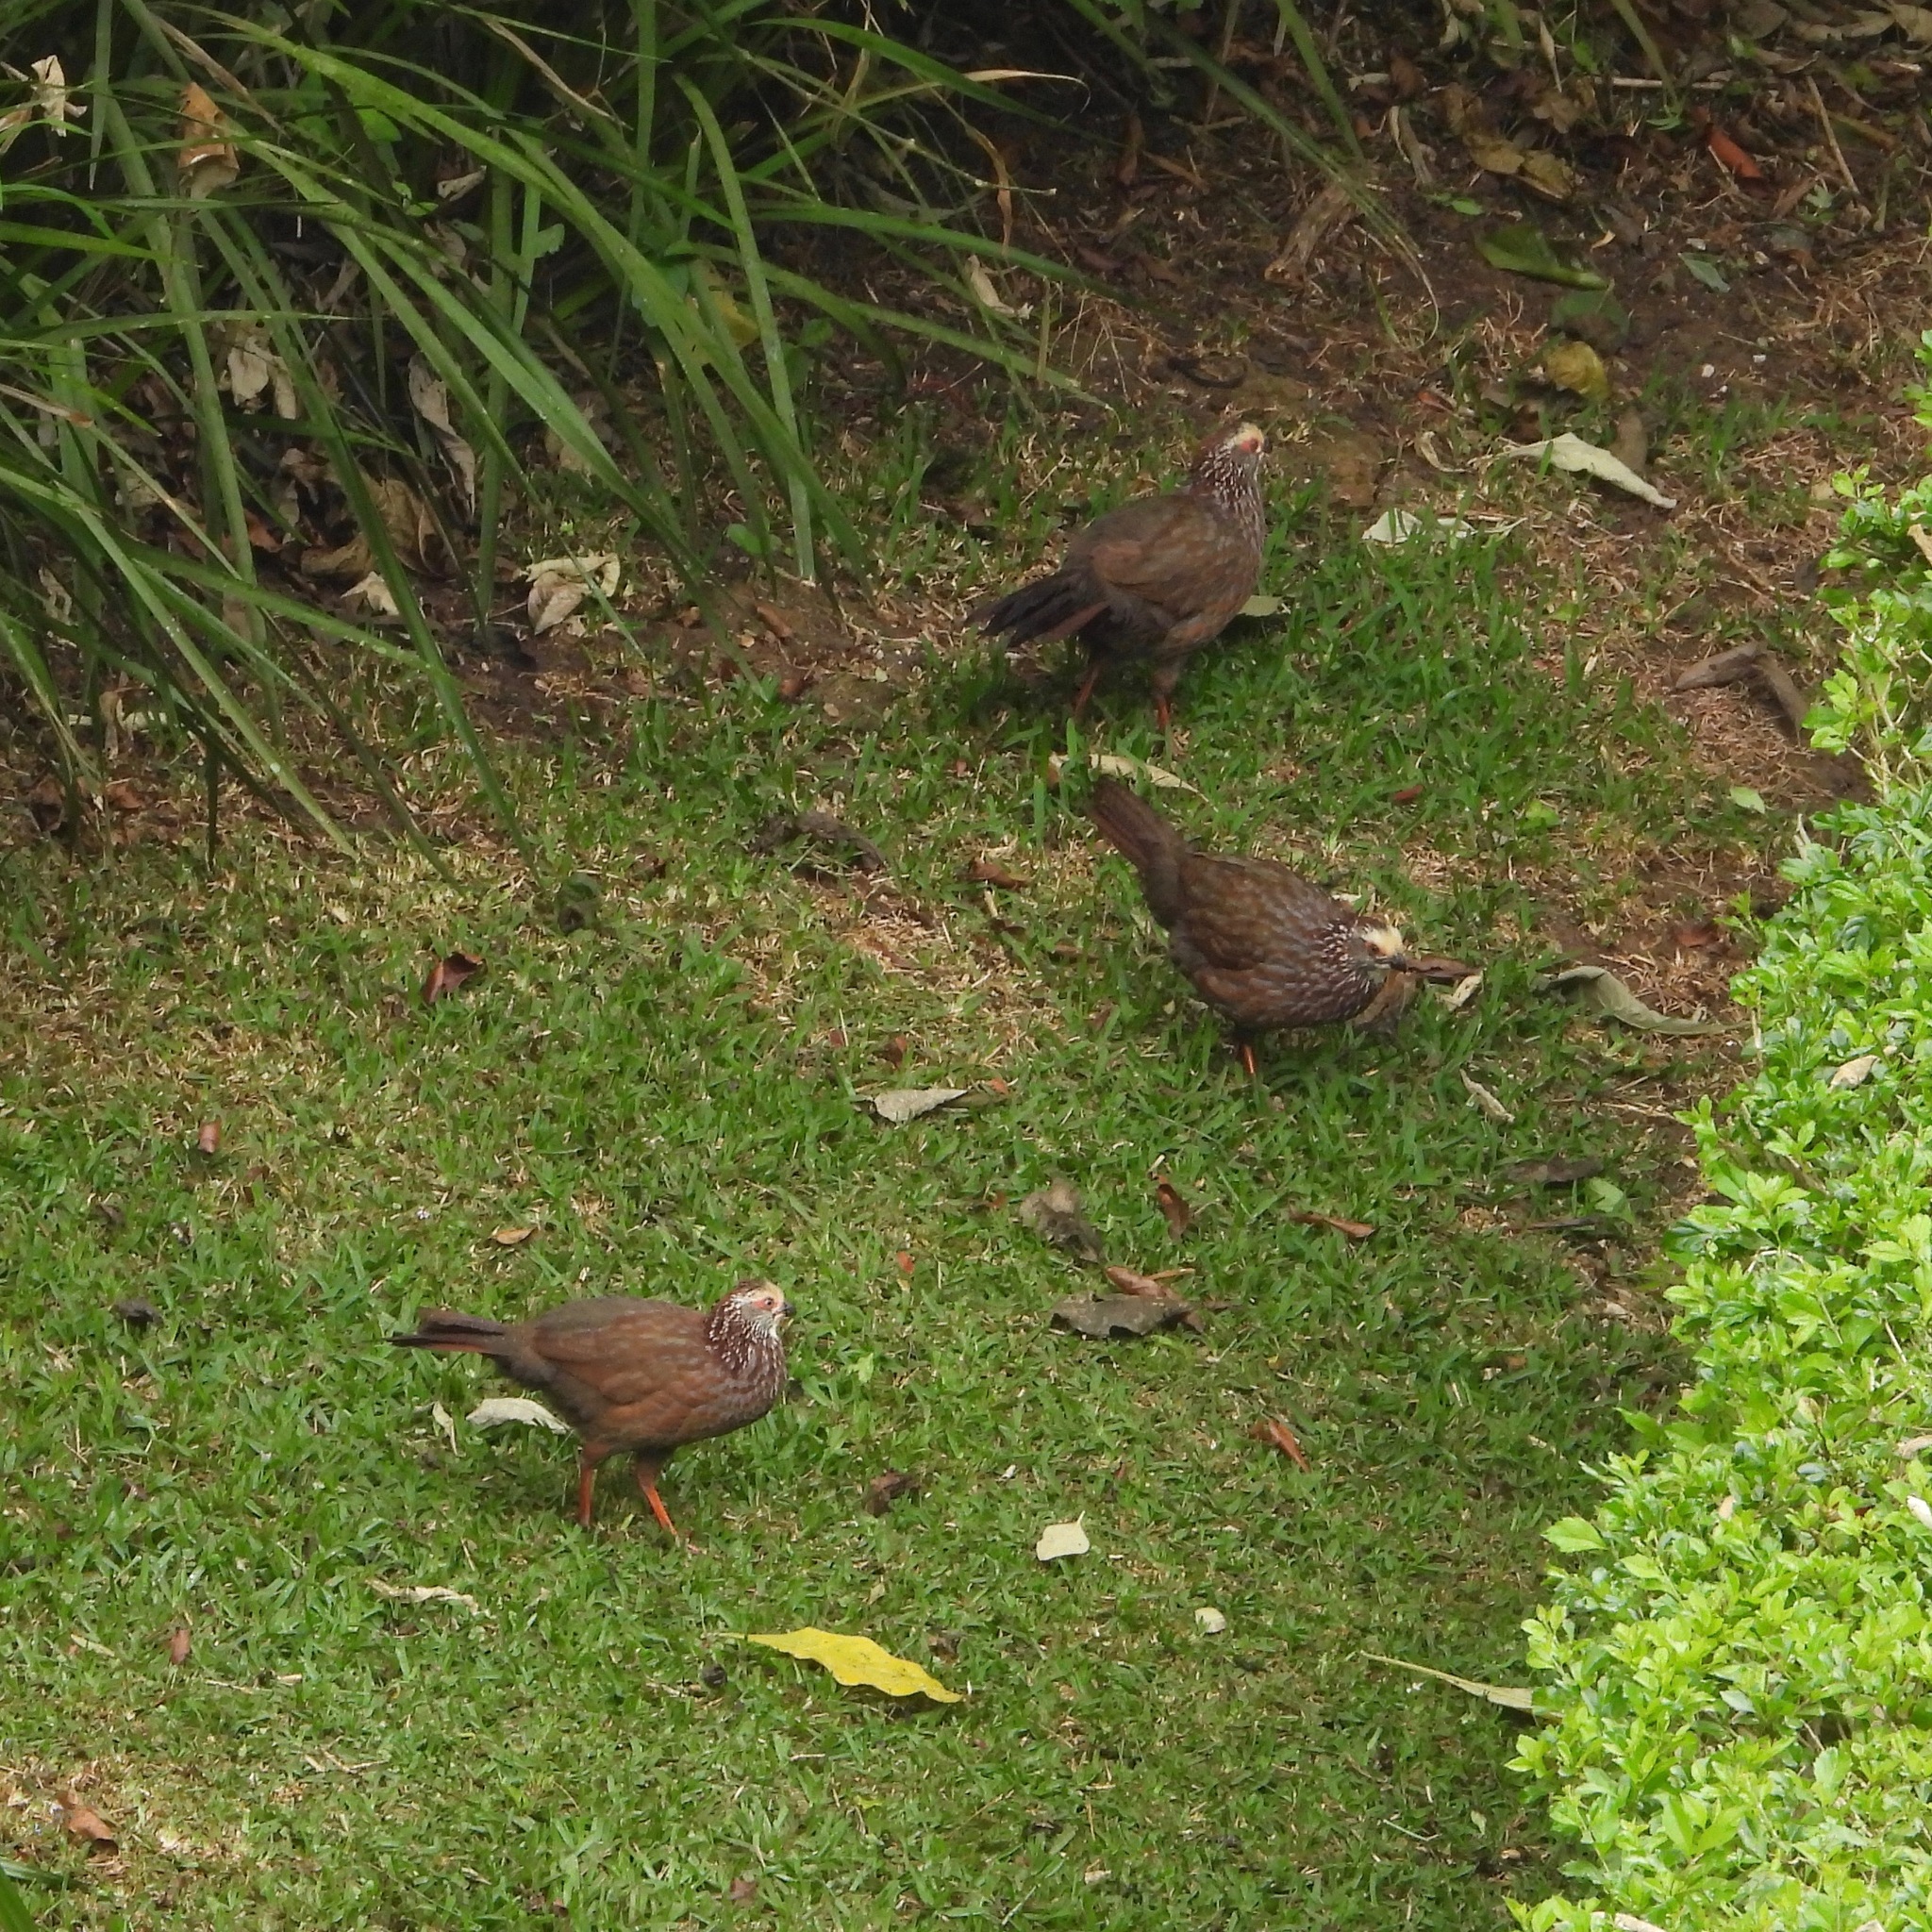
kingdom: Animalia
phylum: Chordata
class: Aves
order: Galliformes
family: Odontophoridae
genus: Dendrortyx
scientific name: Dendrortyx leucophrys
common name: Buffy-crowned wood-partridge
